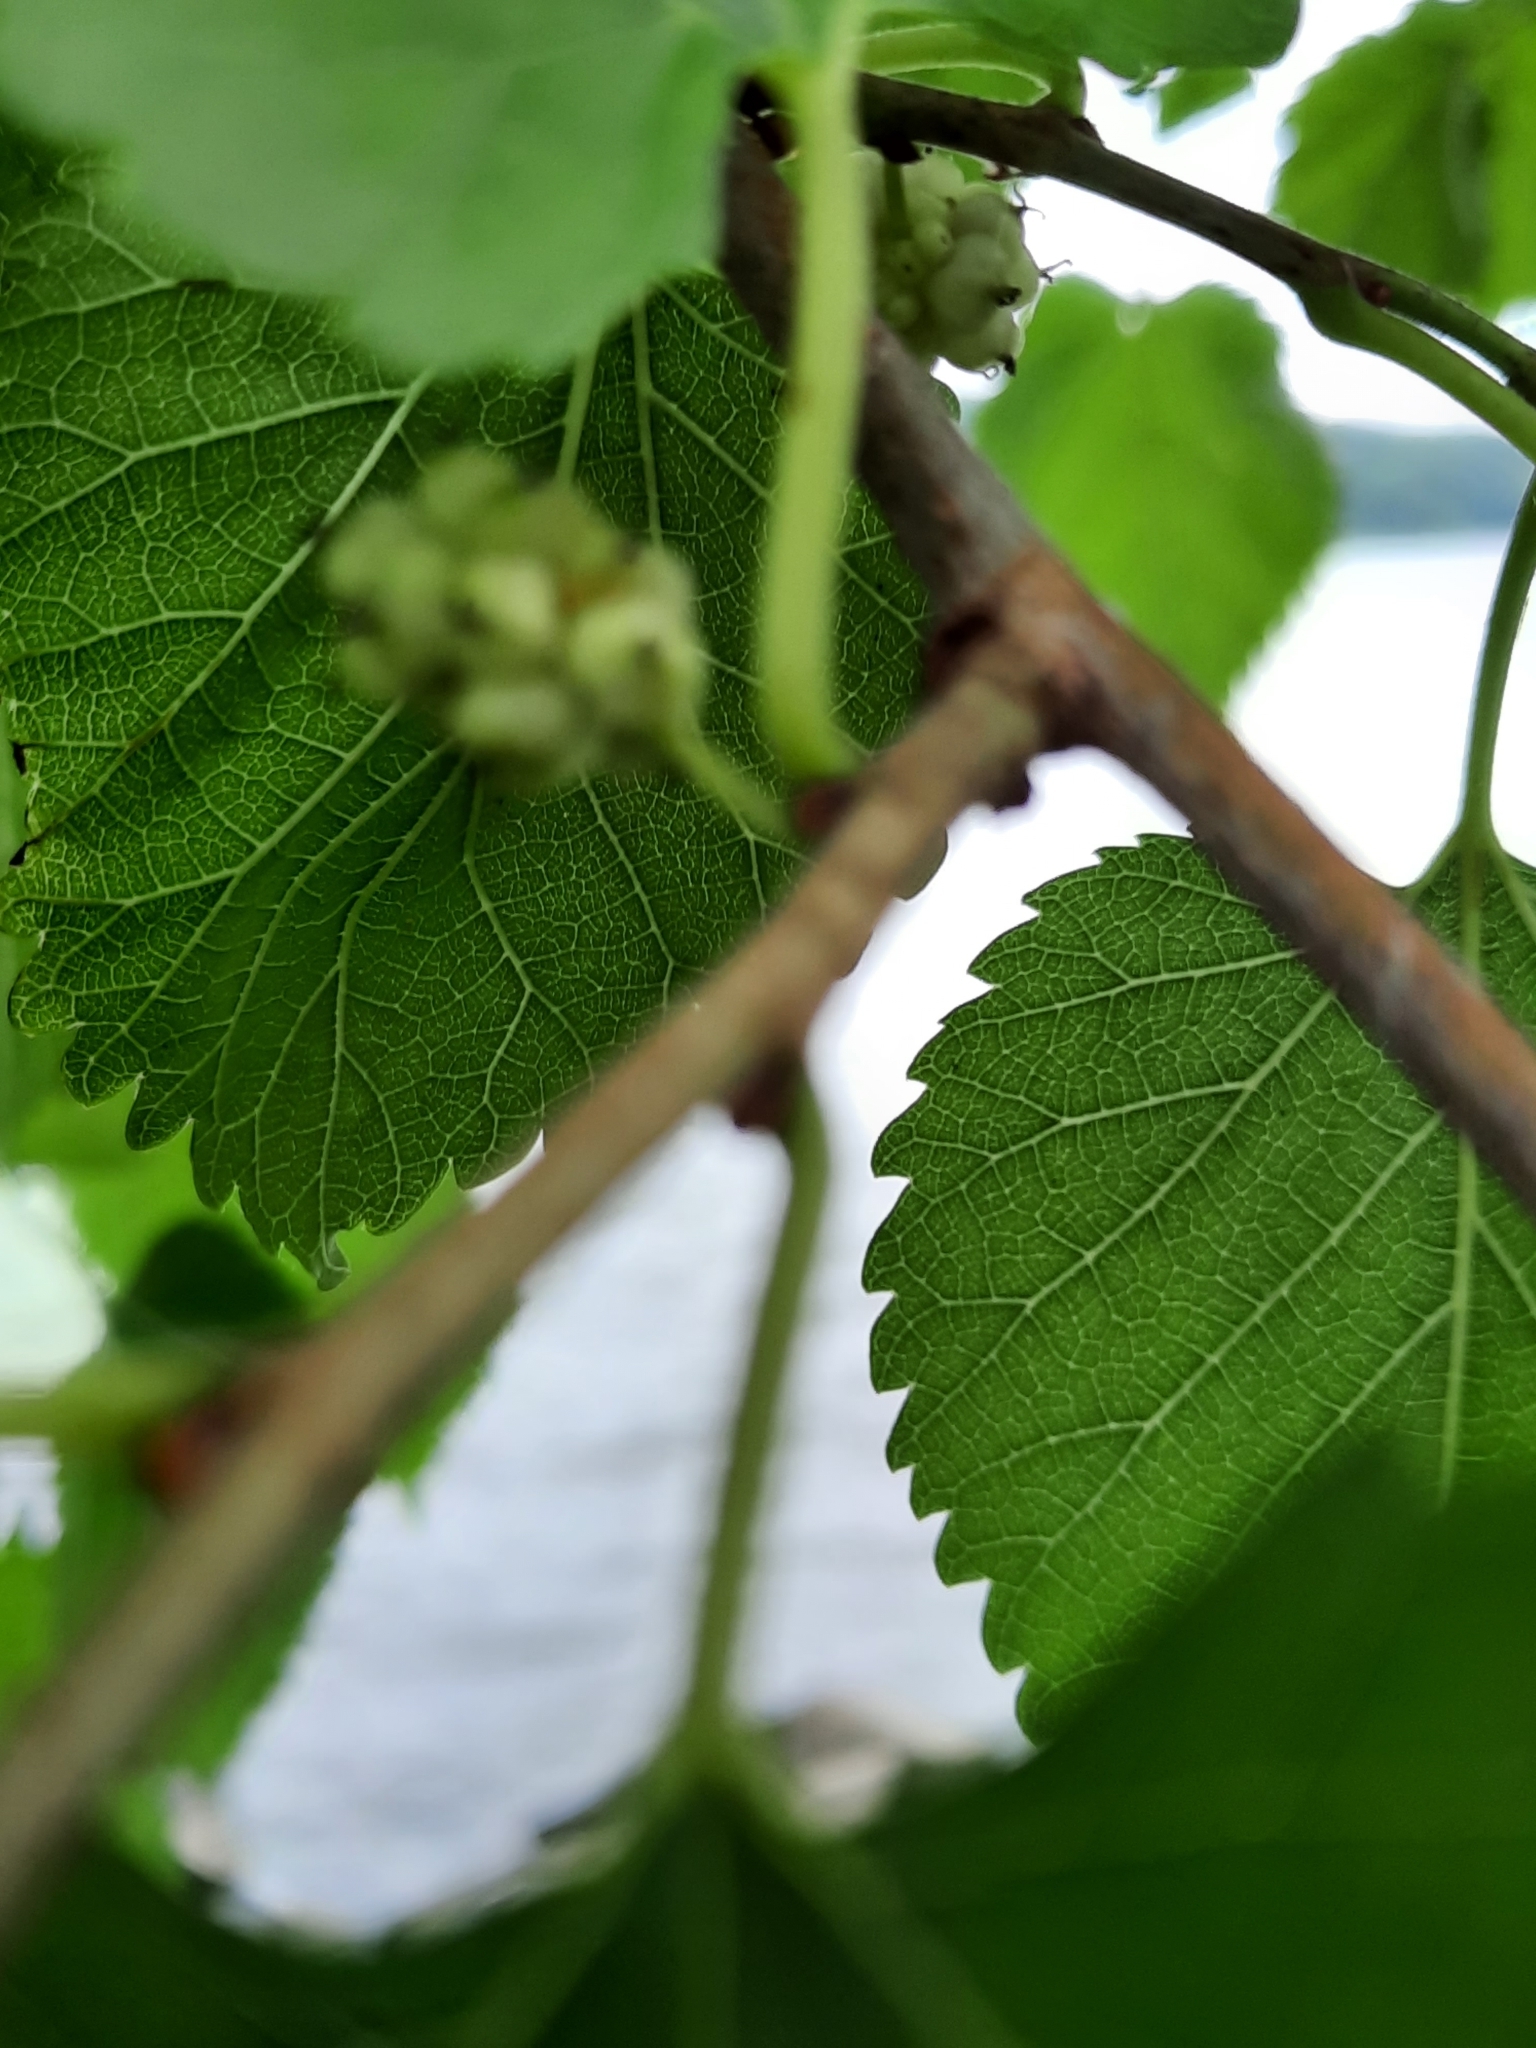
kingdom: Plantae
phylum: Tracheophyta
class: Magnoliopsida
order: Rosales
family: Moraceae
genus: Morus
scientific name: Morus alba
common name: White mulberry
